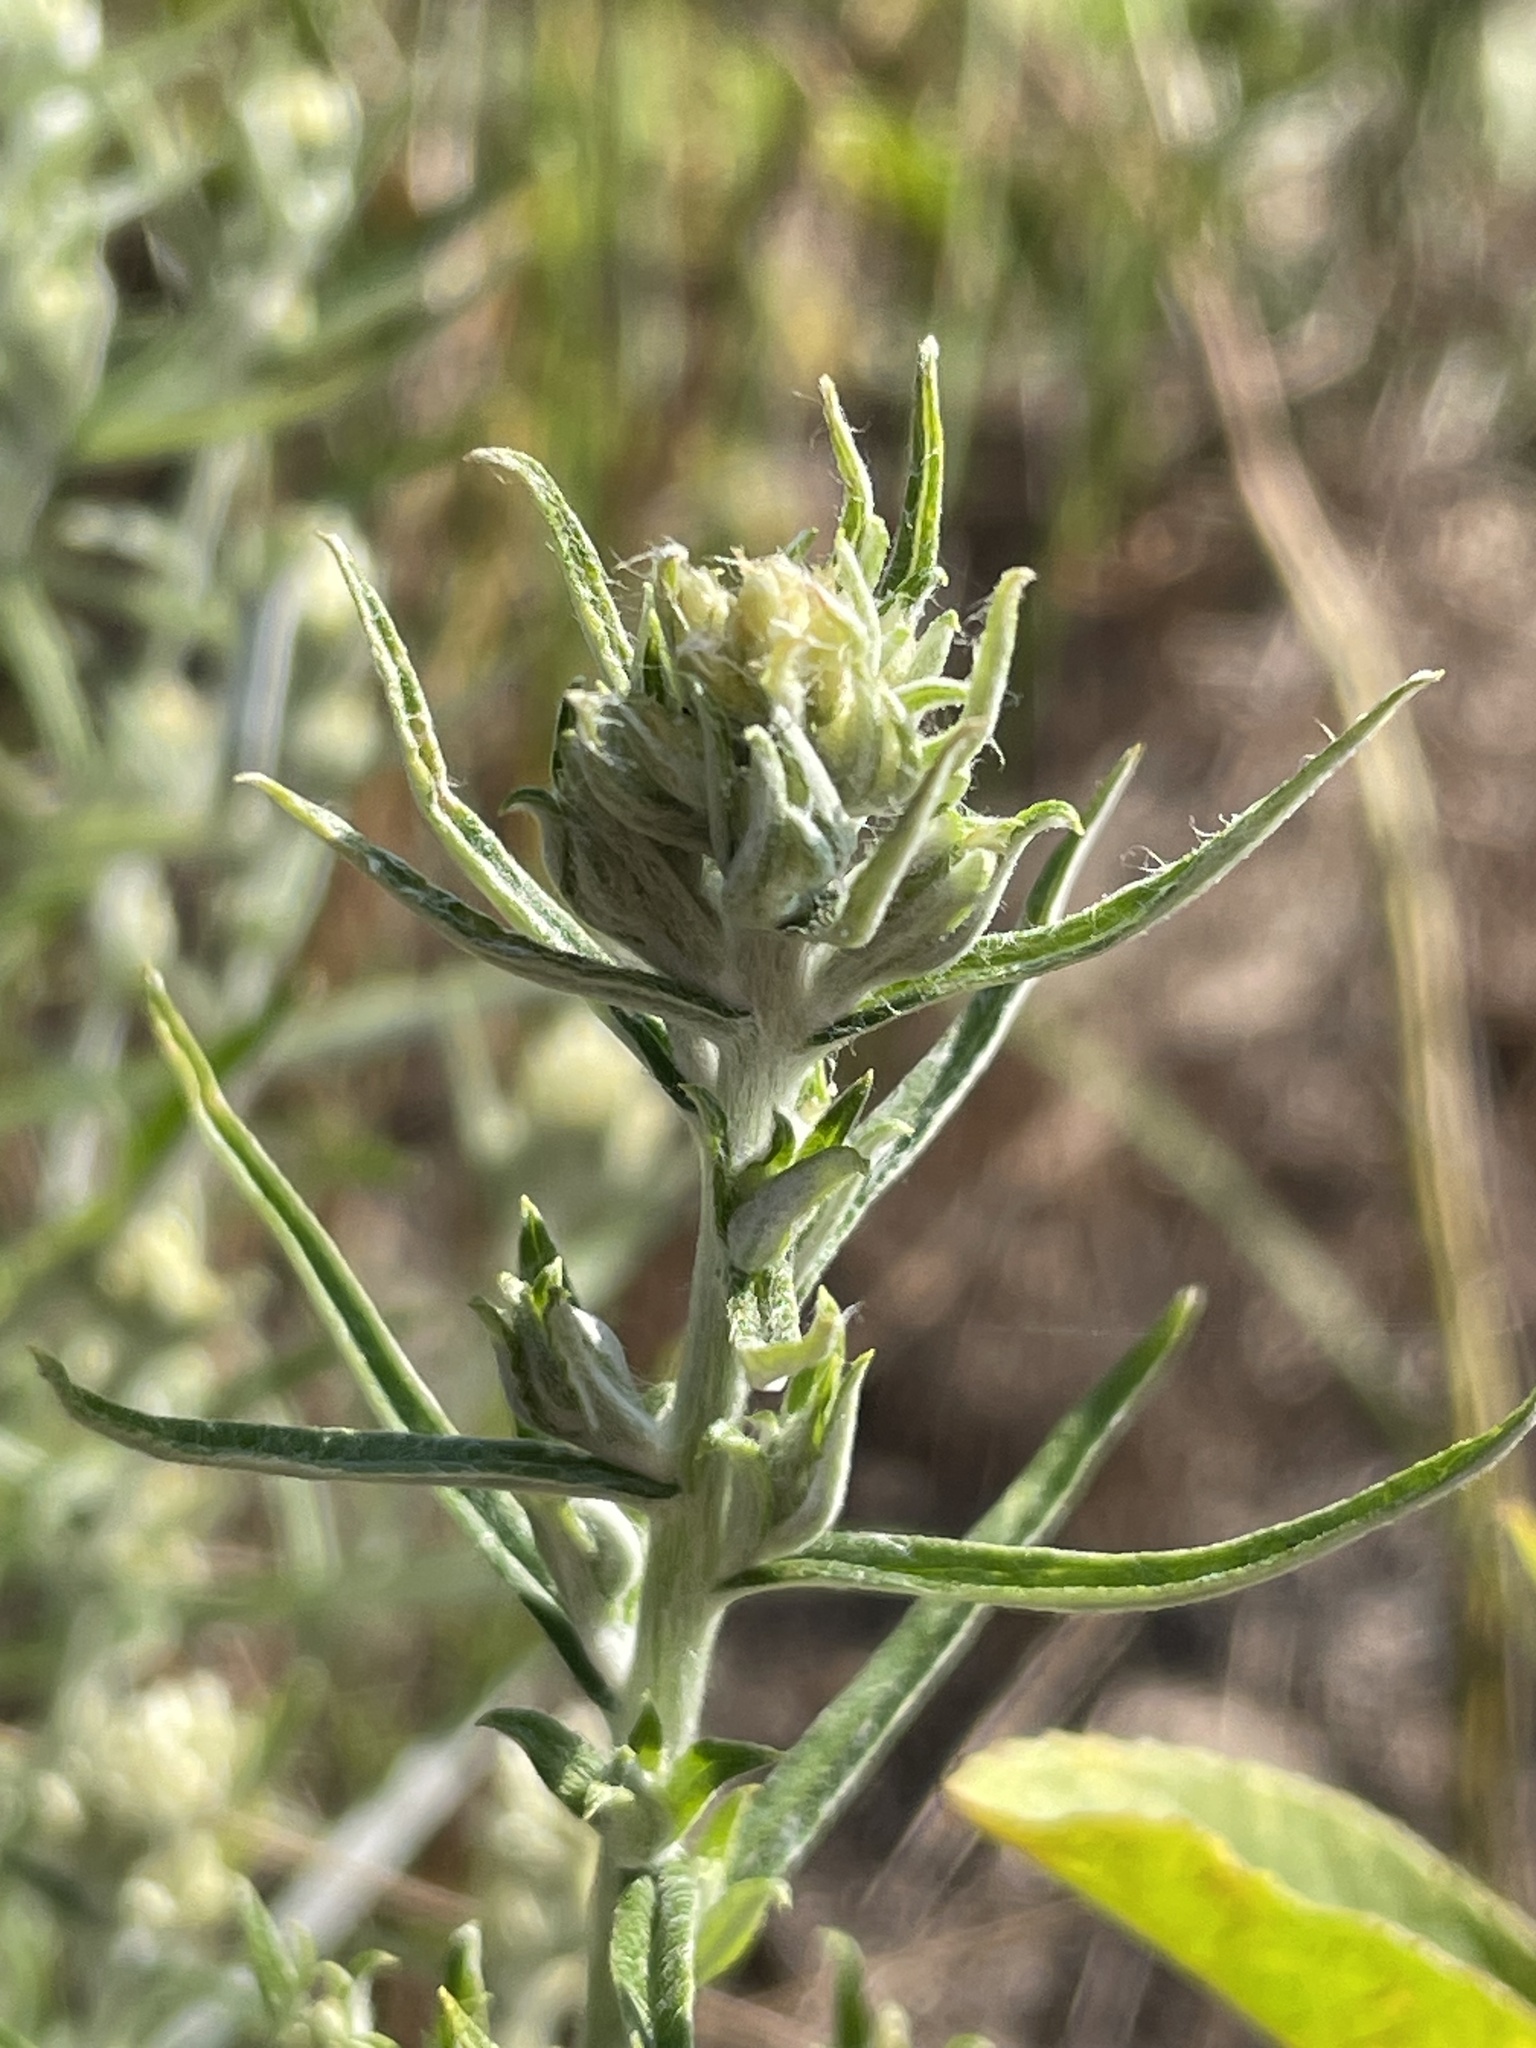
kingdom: Plantae
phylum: Tracheophyta
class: Magnoliopsida
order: Asterales
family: Asteraceae
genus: Pseudognaphalium
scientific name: Pseudognaphalium obtusifolium
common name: Eastern rabbit-tobacco
